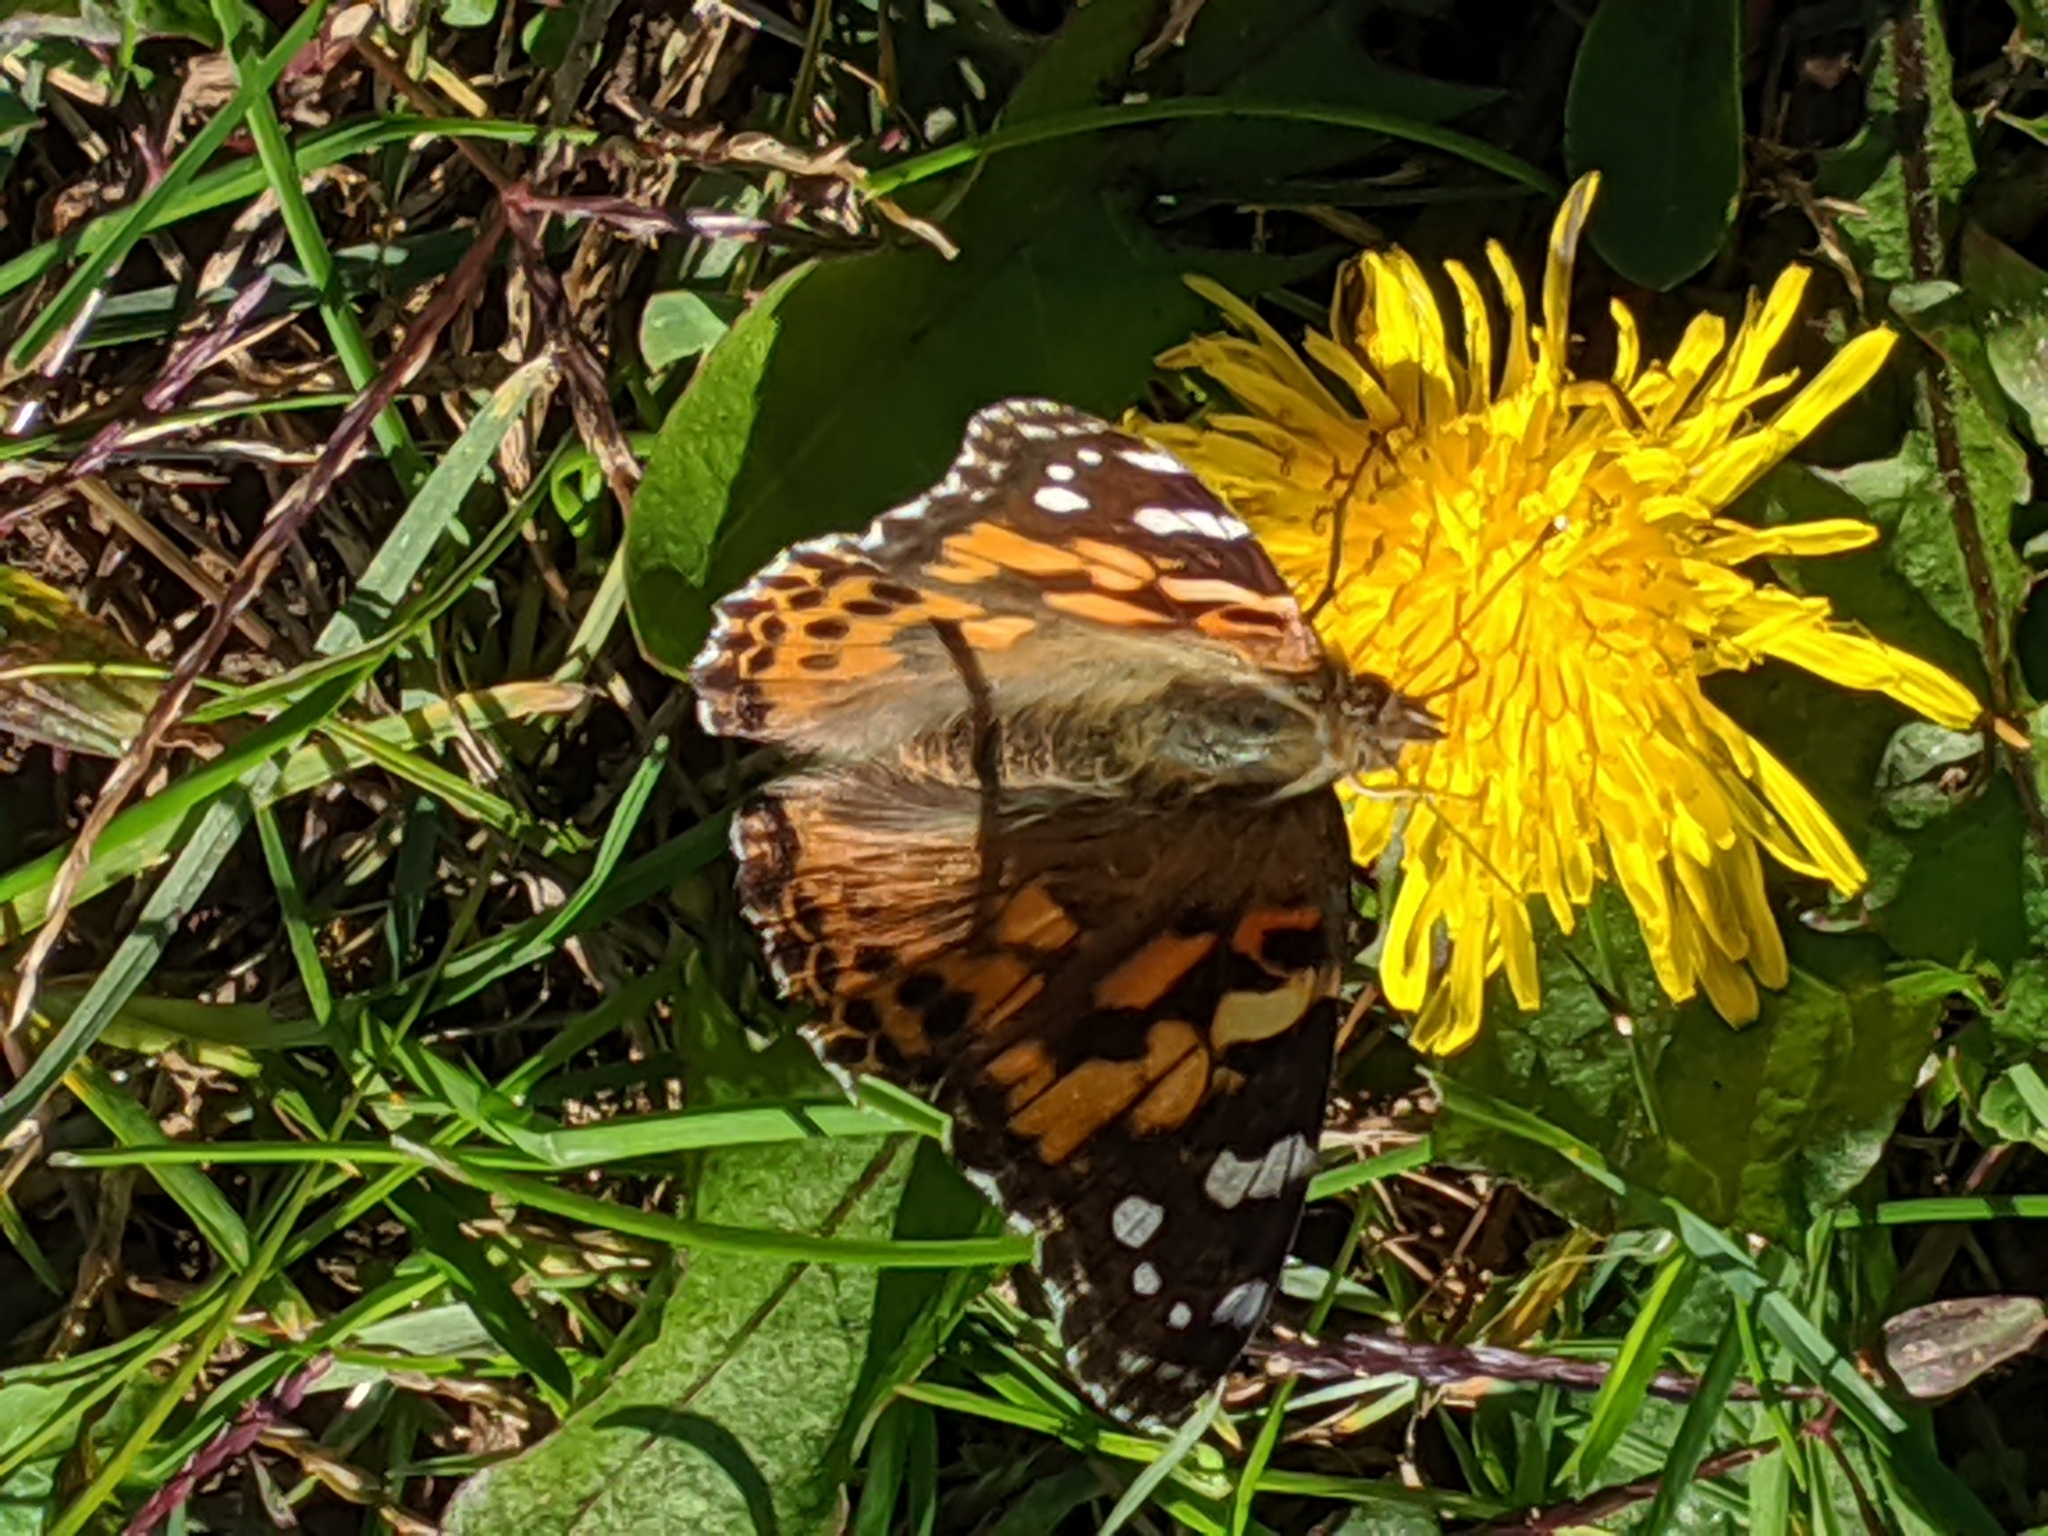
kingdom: Animalia
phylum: Arthropoda
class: Insecta
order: Lepidoptera
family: Nymphalidae
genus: Vanessa
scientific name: Vanessa cardui
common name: Painted lady
